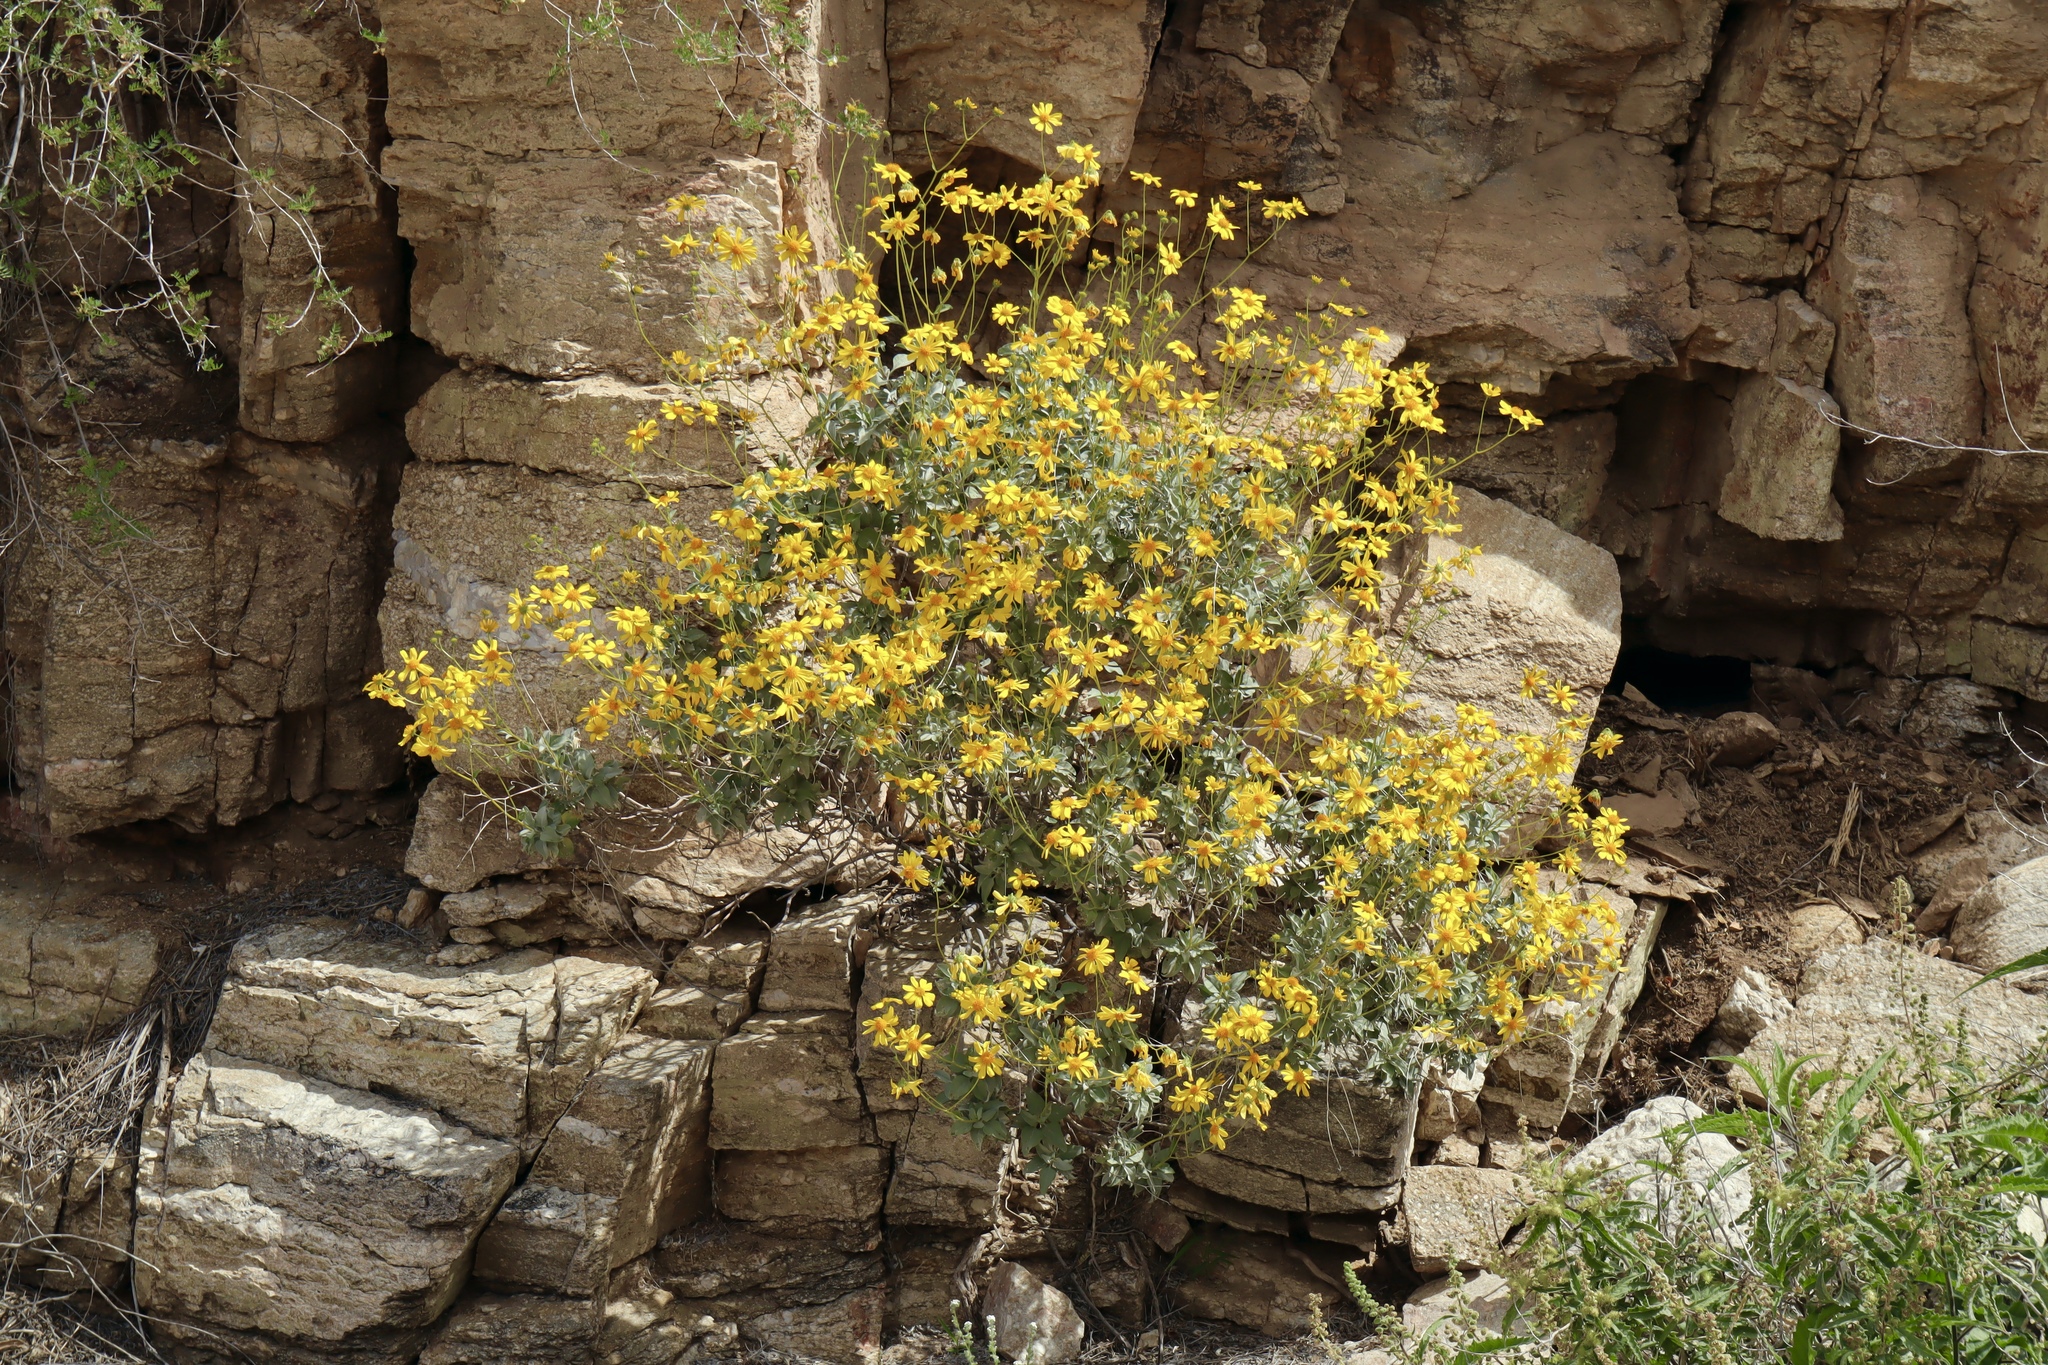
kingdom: Plantae
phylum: Tracheophyta
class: Magnoliopsida
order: Asterales
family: Asteraceae
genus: Encelia
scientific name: Encelia farinosa
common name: Brittlebush
